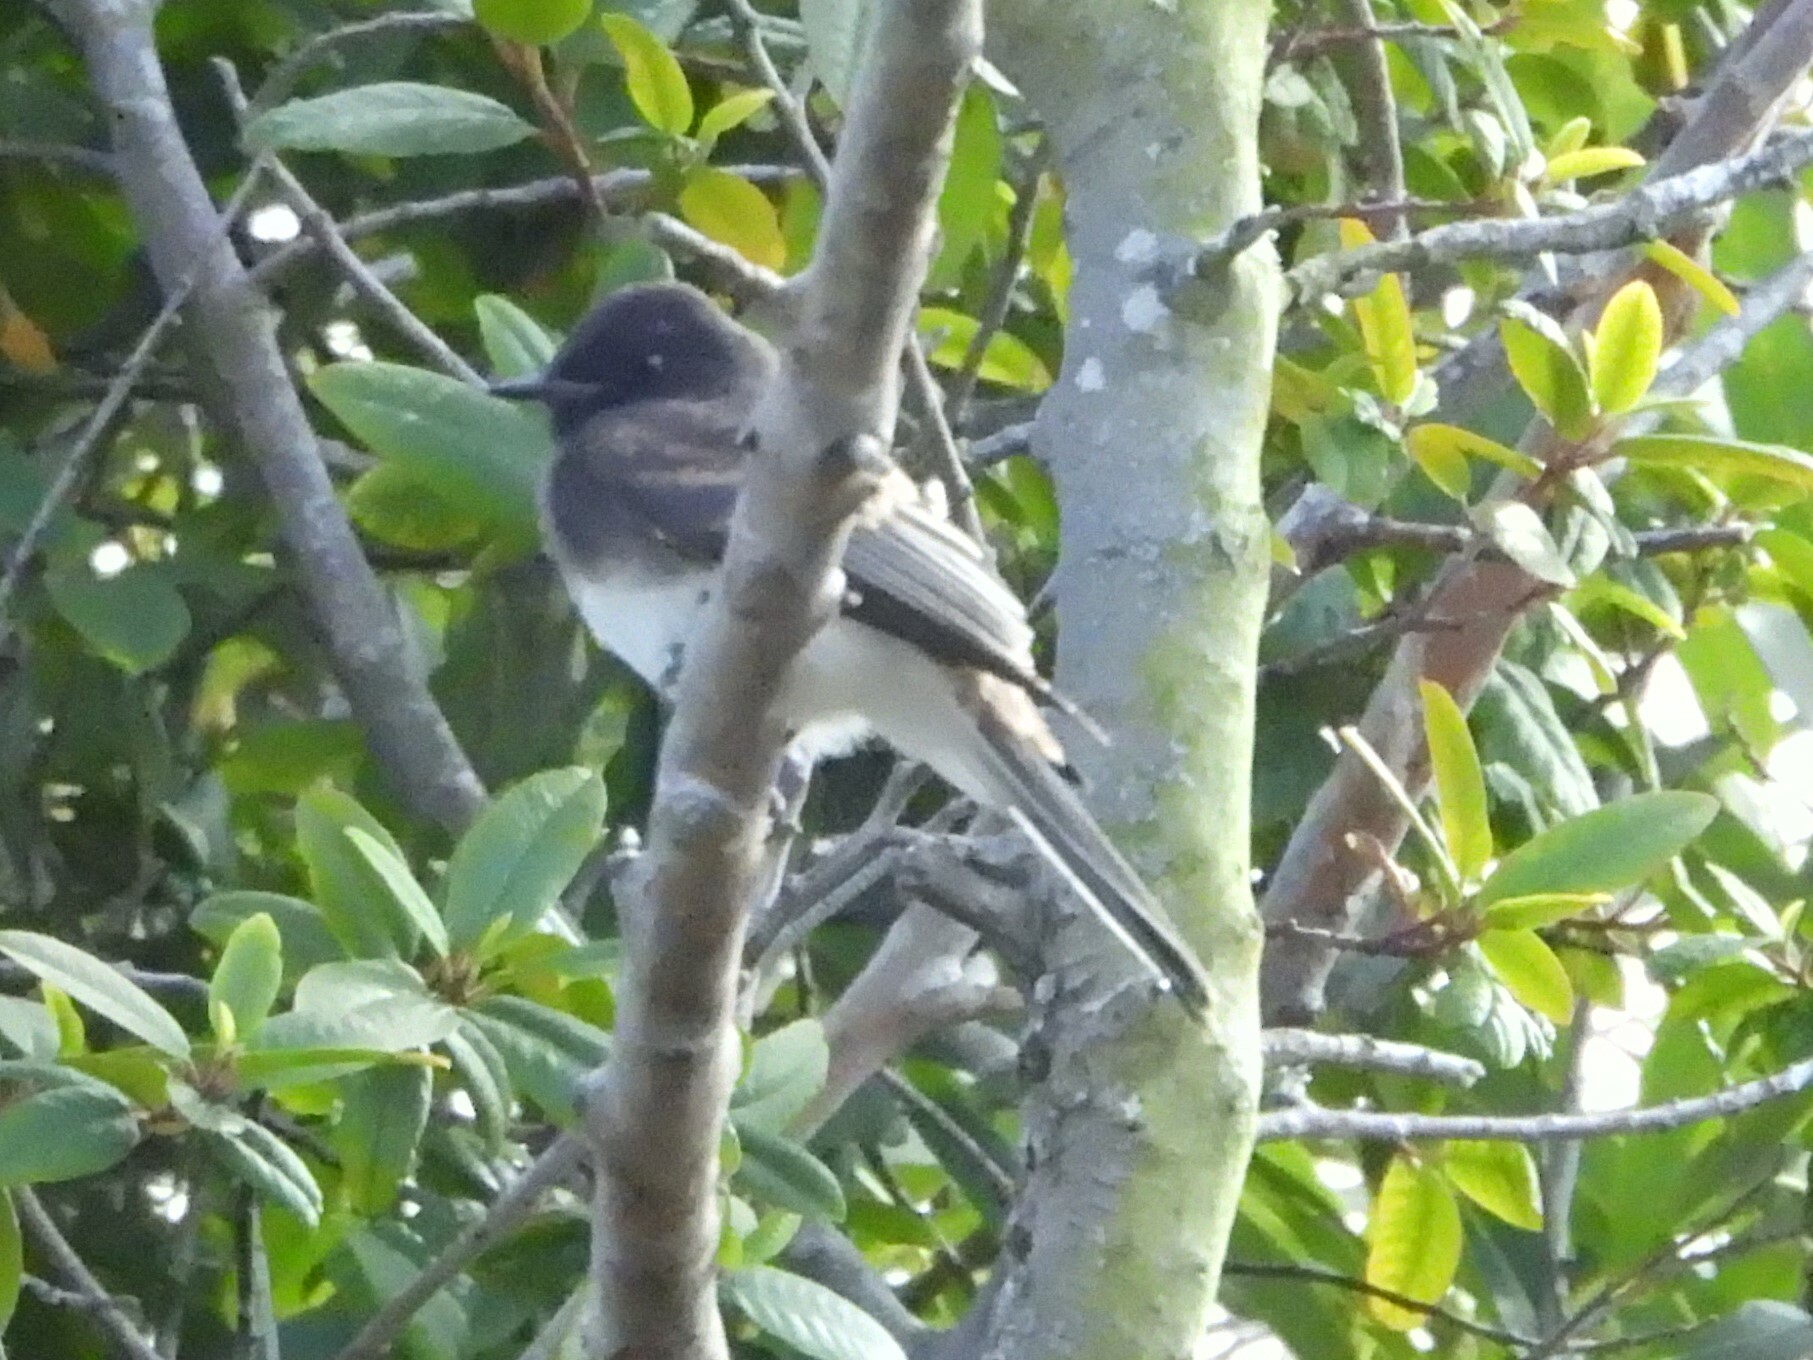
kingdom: Animalia
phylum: Chordata
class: Aves
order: Passeriformes
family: Tyrannidae
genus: Sayornis
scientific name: Sayornis nigricans
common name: Black phoebe
